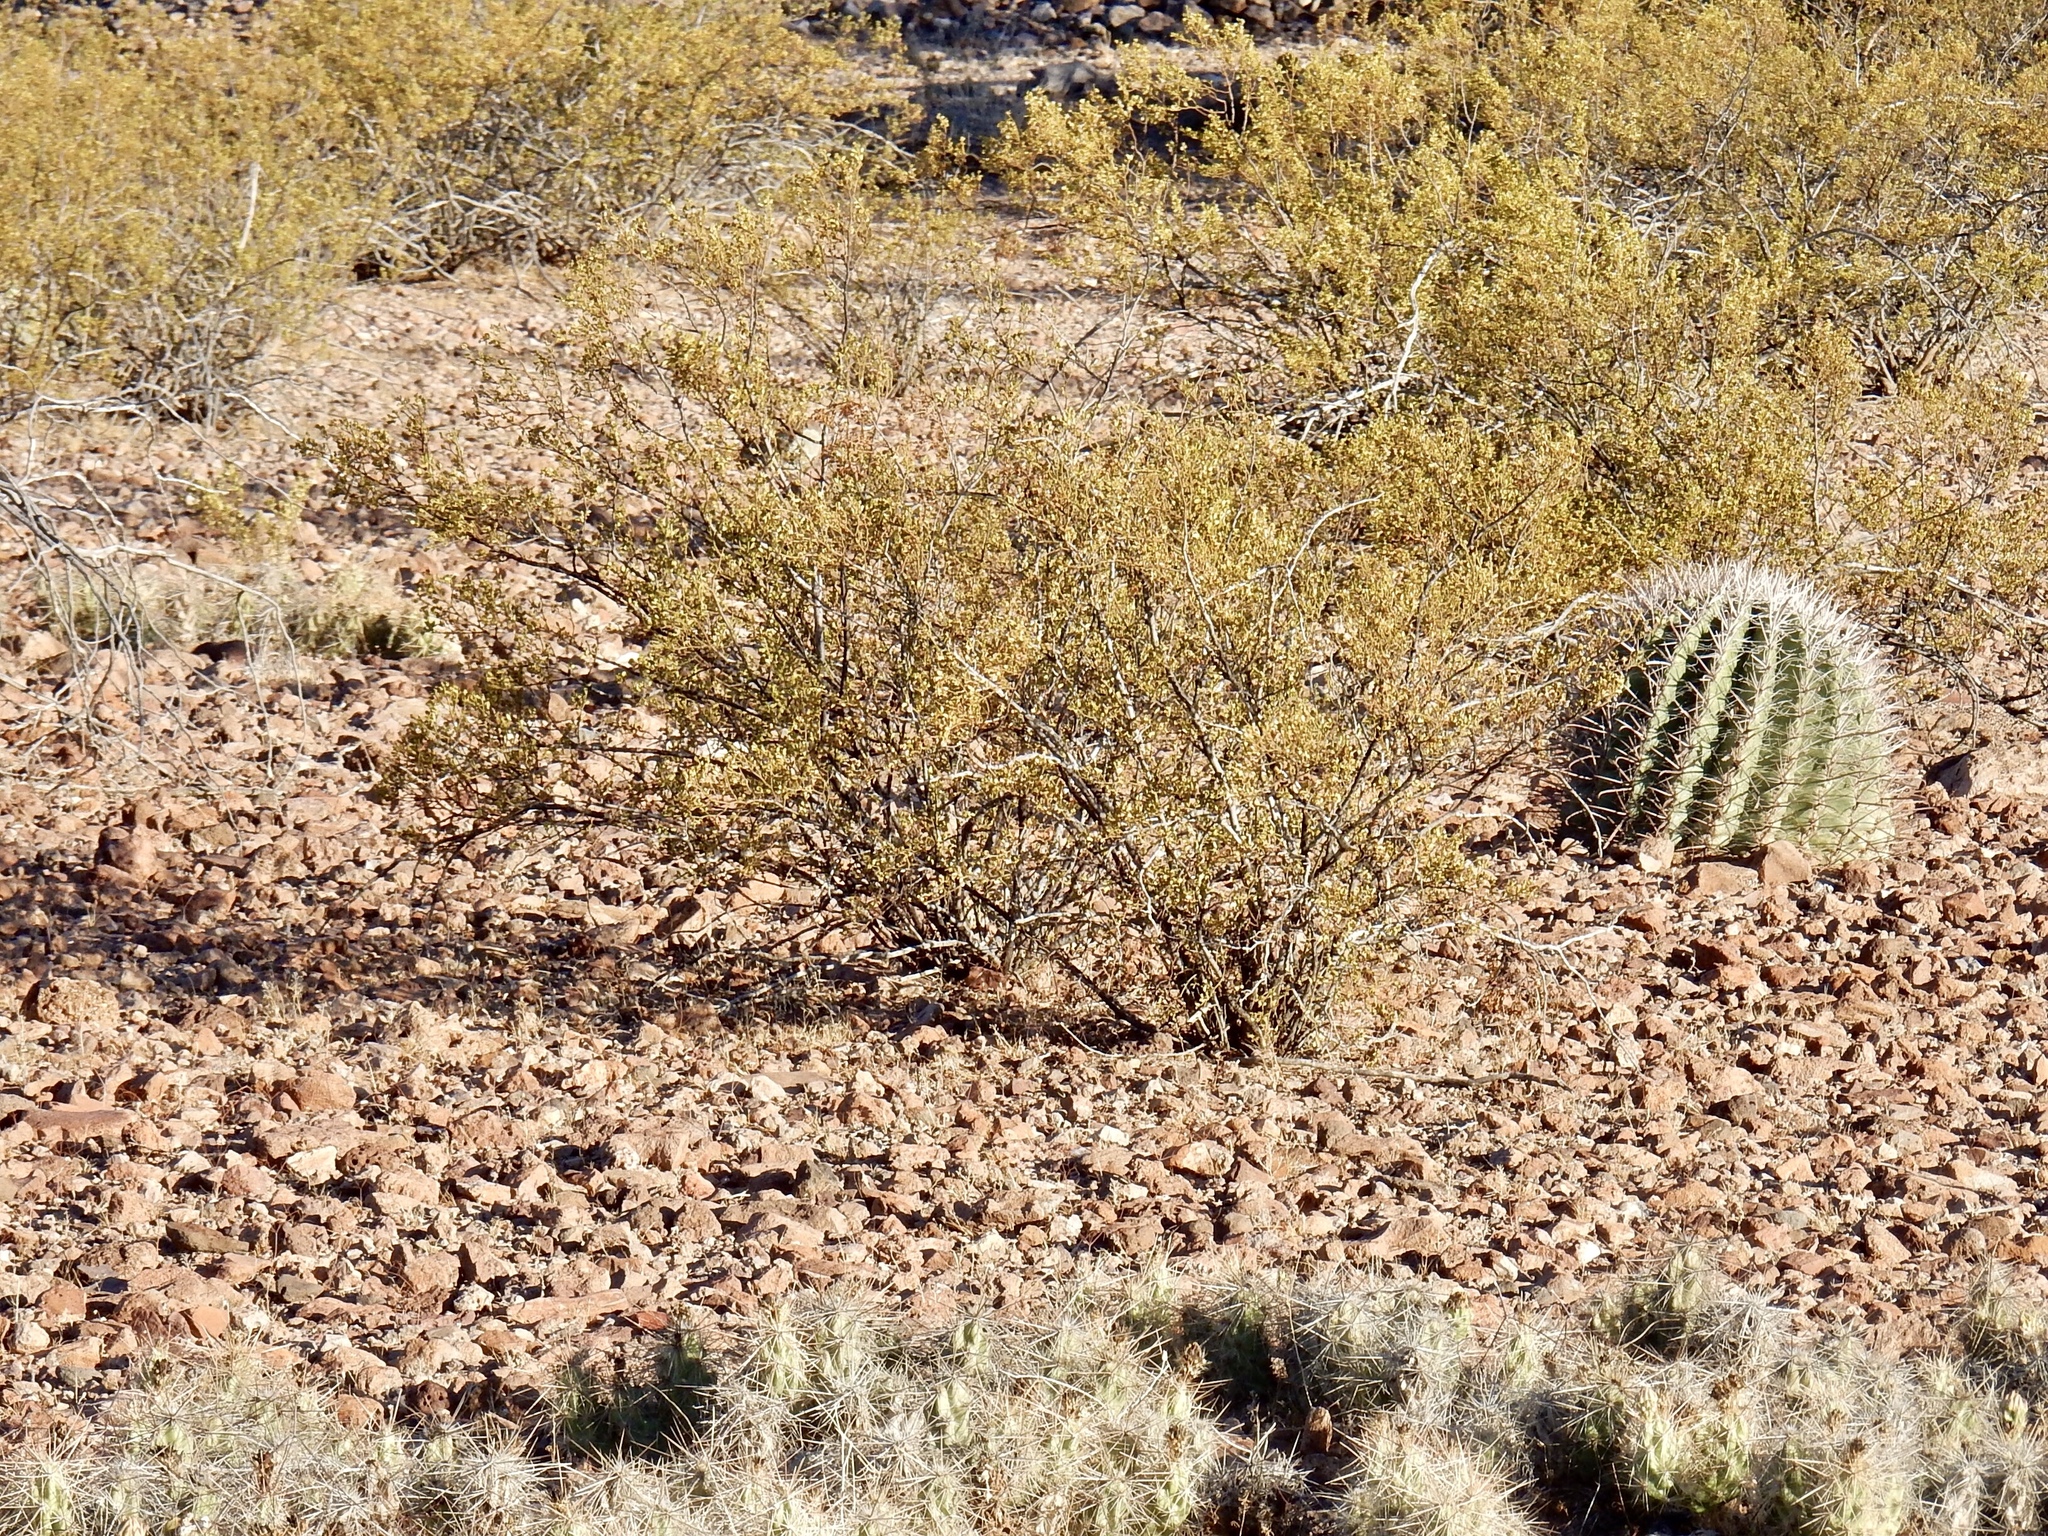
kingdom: Plantae
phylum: Tracheophyta
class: Magnoliopsida
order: Zygophyllales
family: Zygophyllaceae
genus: Larrea
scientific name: Larrea tridentata
